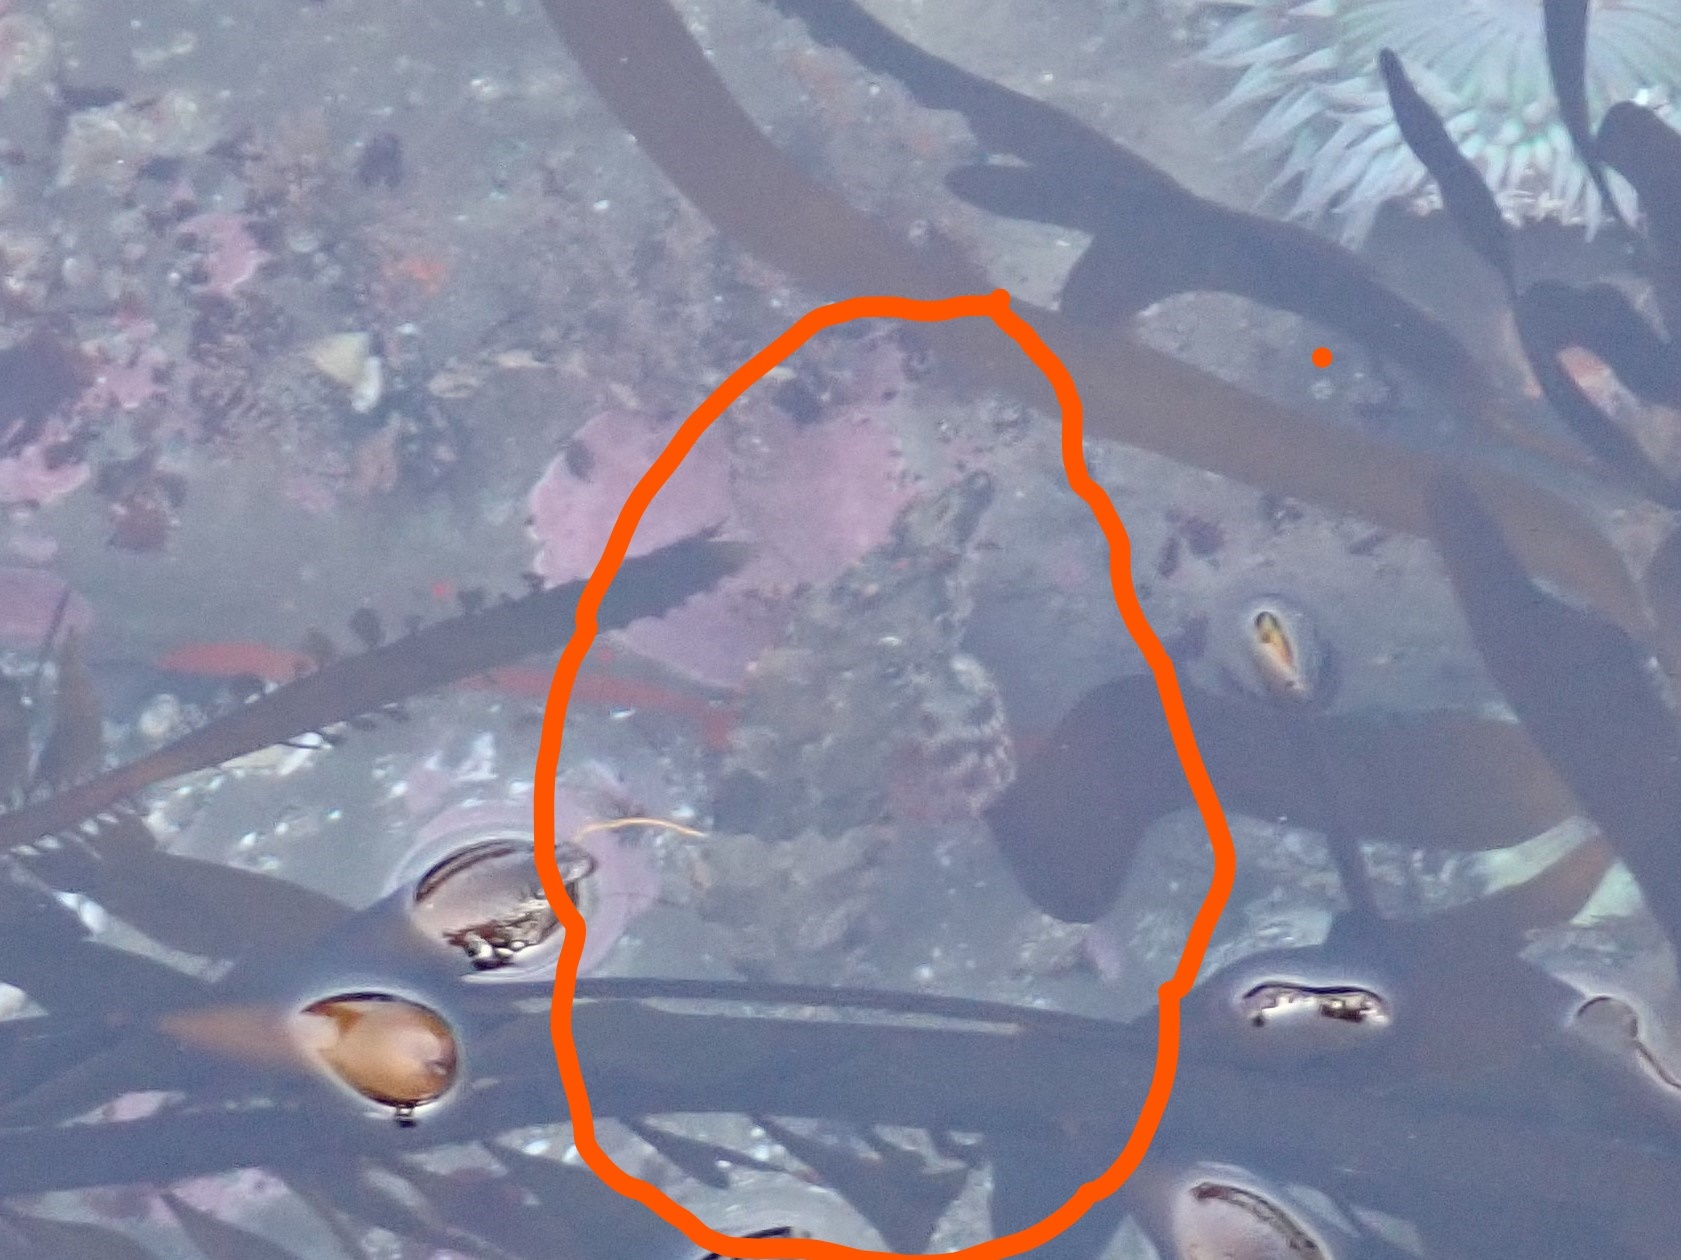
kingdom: Animalia
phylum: Chordata
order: Scorpaeniformes
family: Hexagrammidae
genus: Oxylebius
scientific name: Oxylebius pictus
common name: Painted greenling
